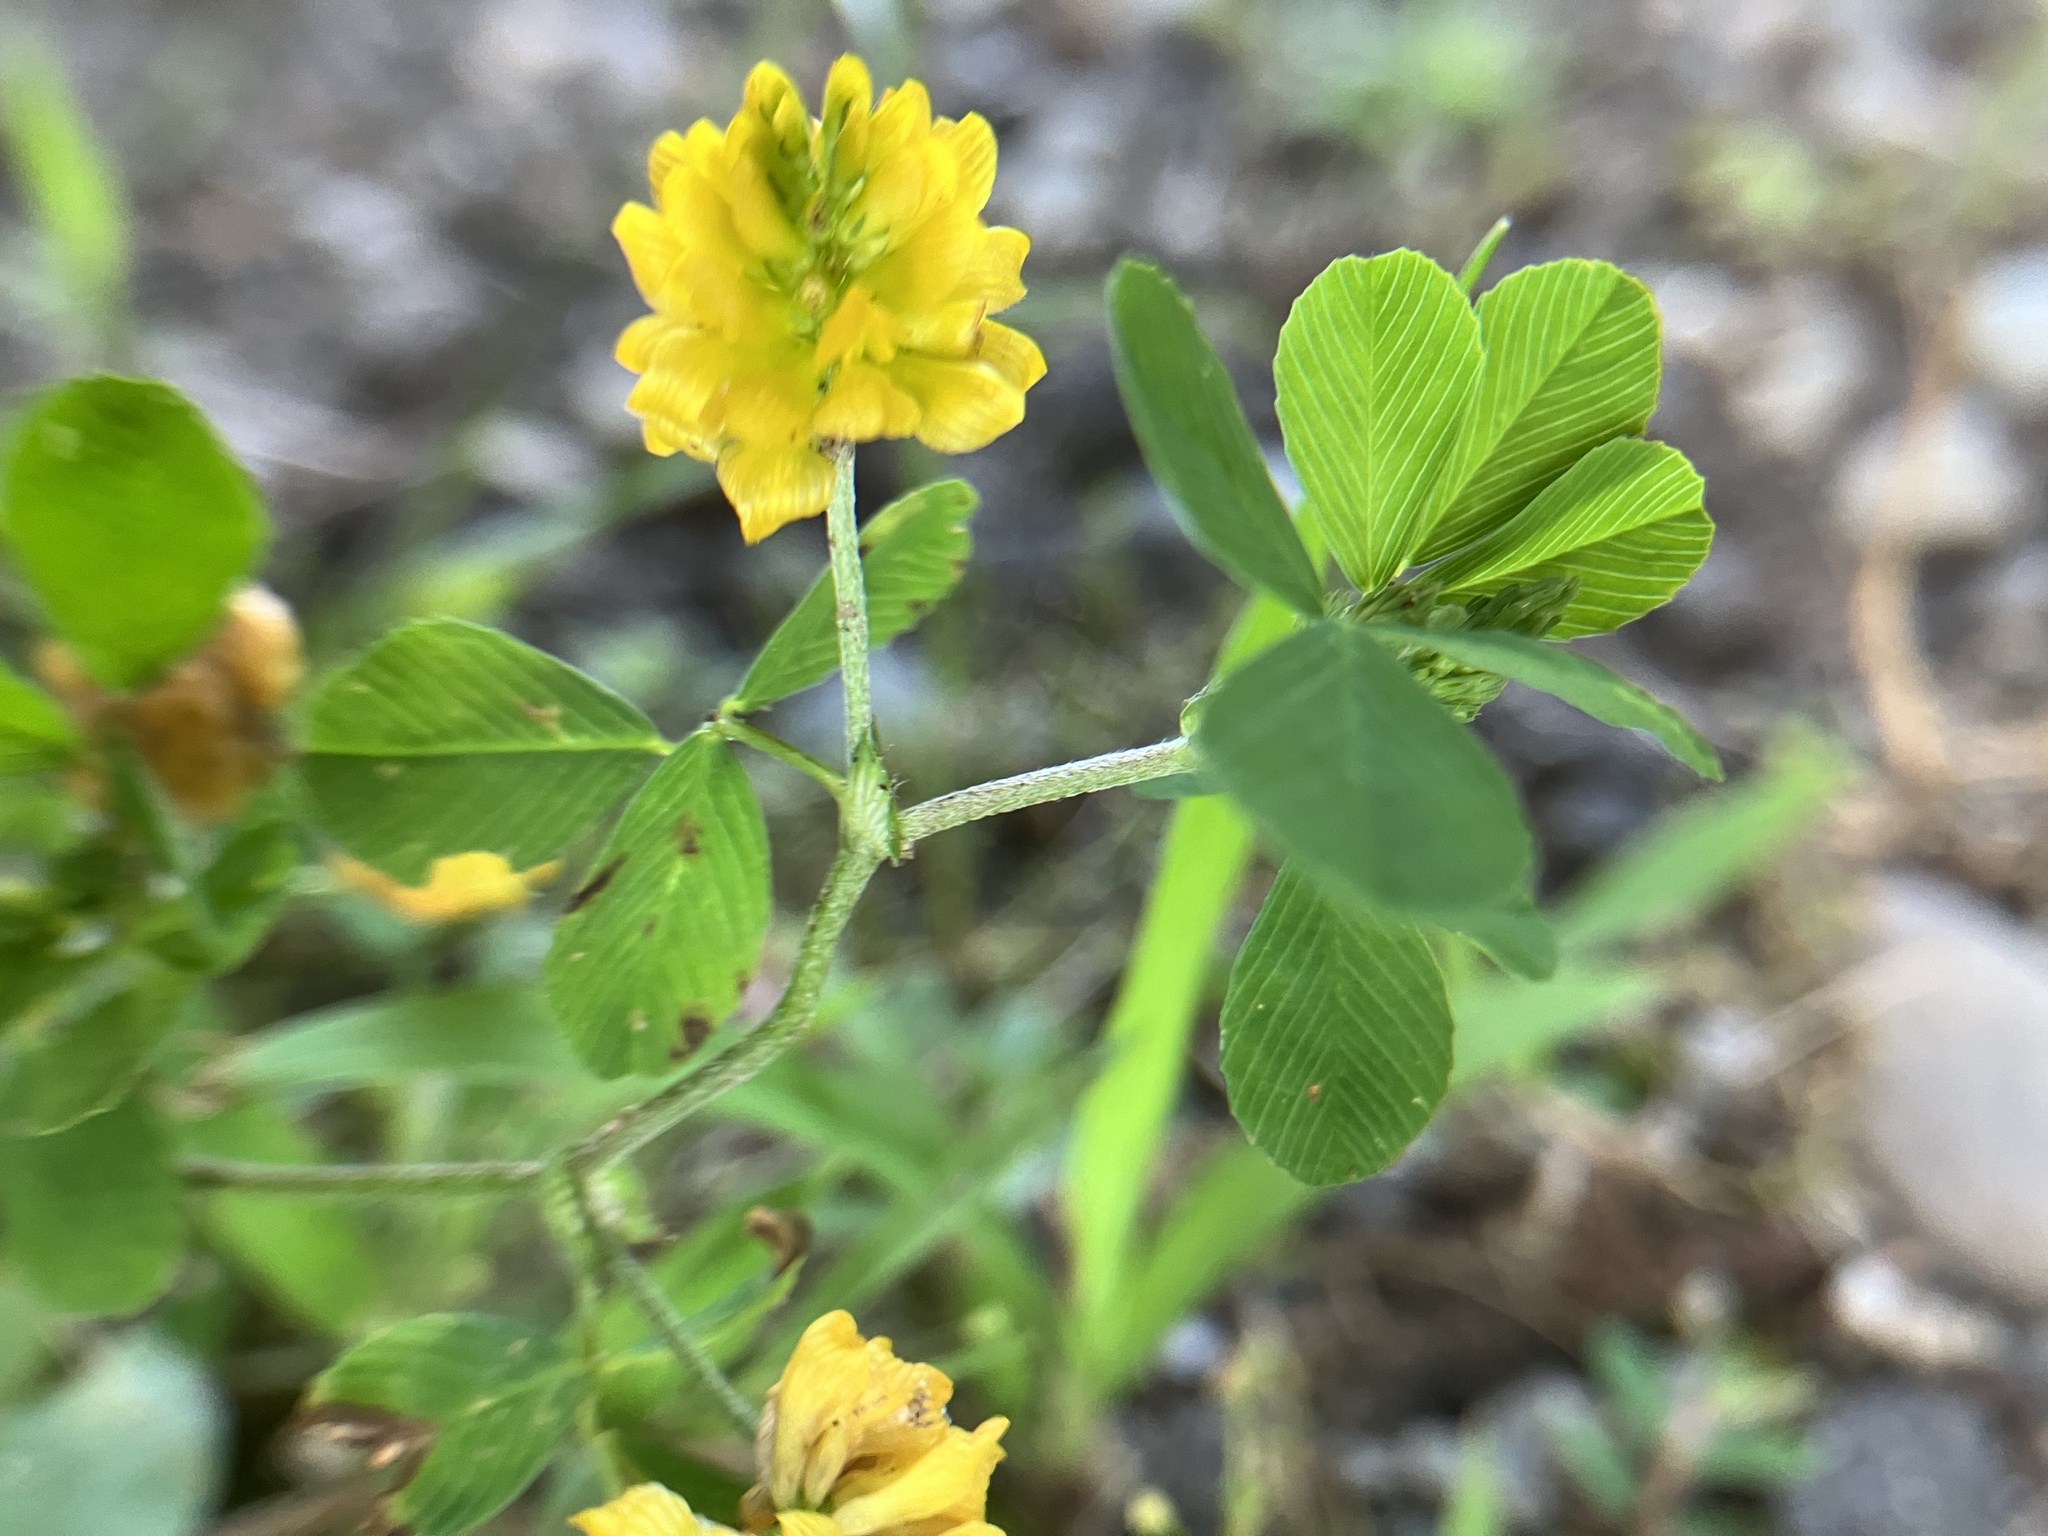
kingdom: Plantae
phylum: Tracheophyta
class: Magnoliopsida
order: Fabales
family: Fabaceae
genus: Trifolium
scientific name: Trifolium campestre
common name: Field clover
